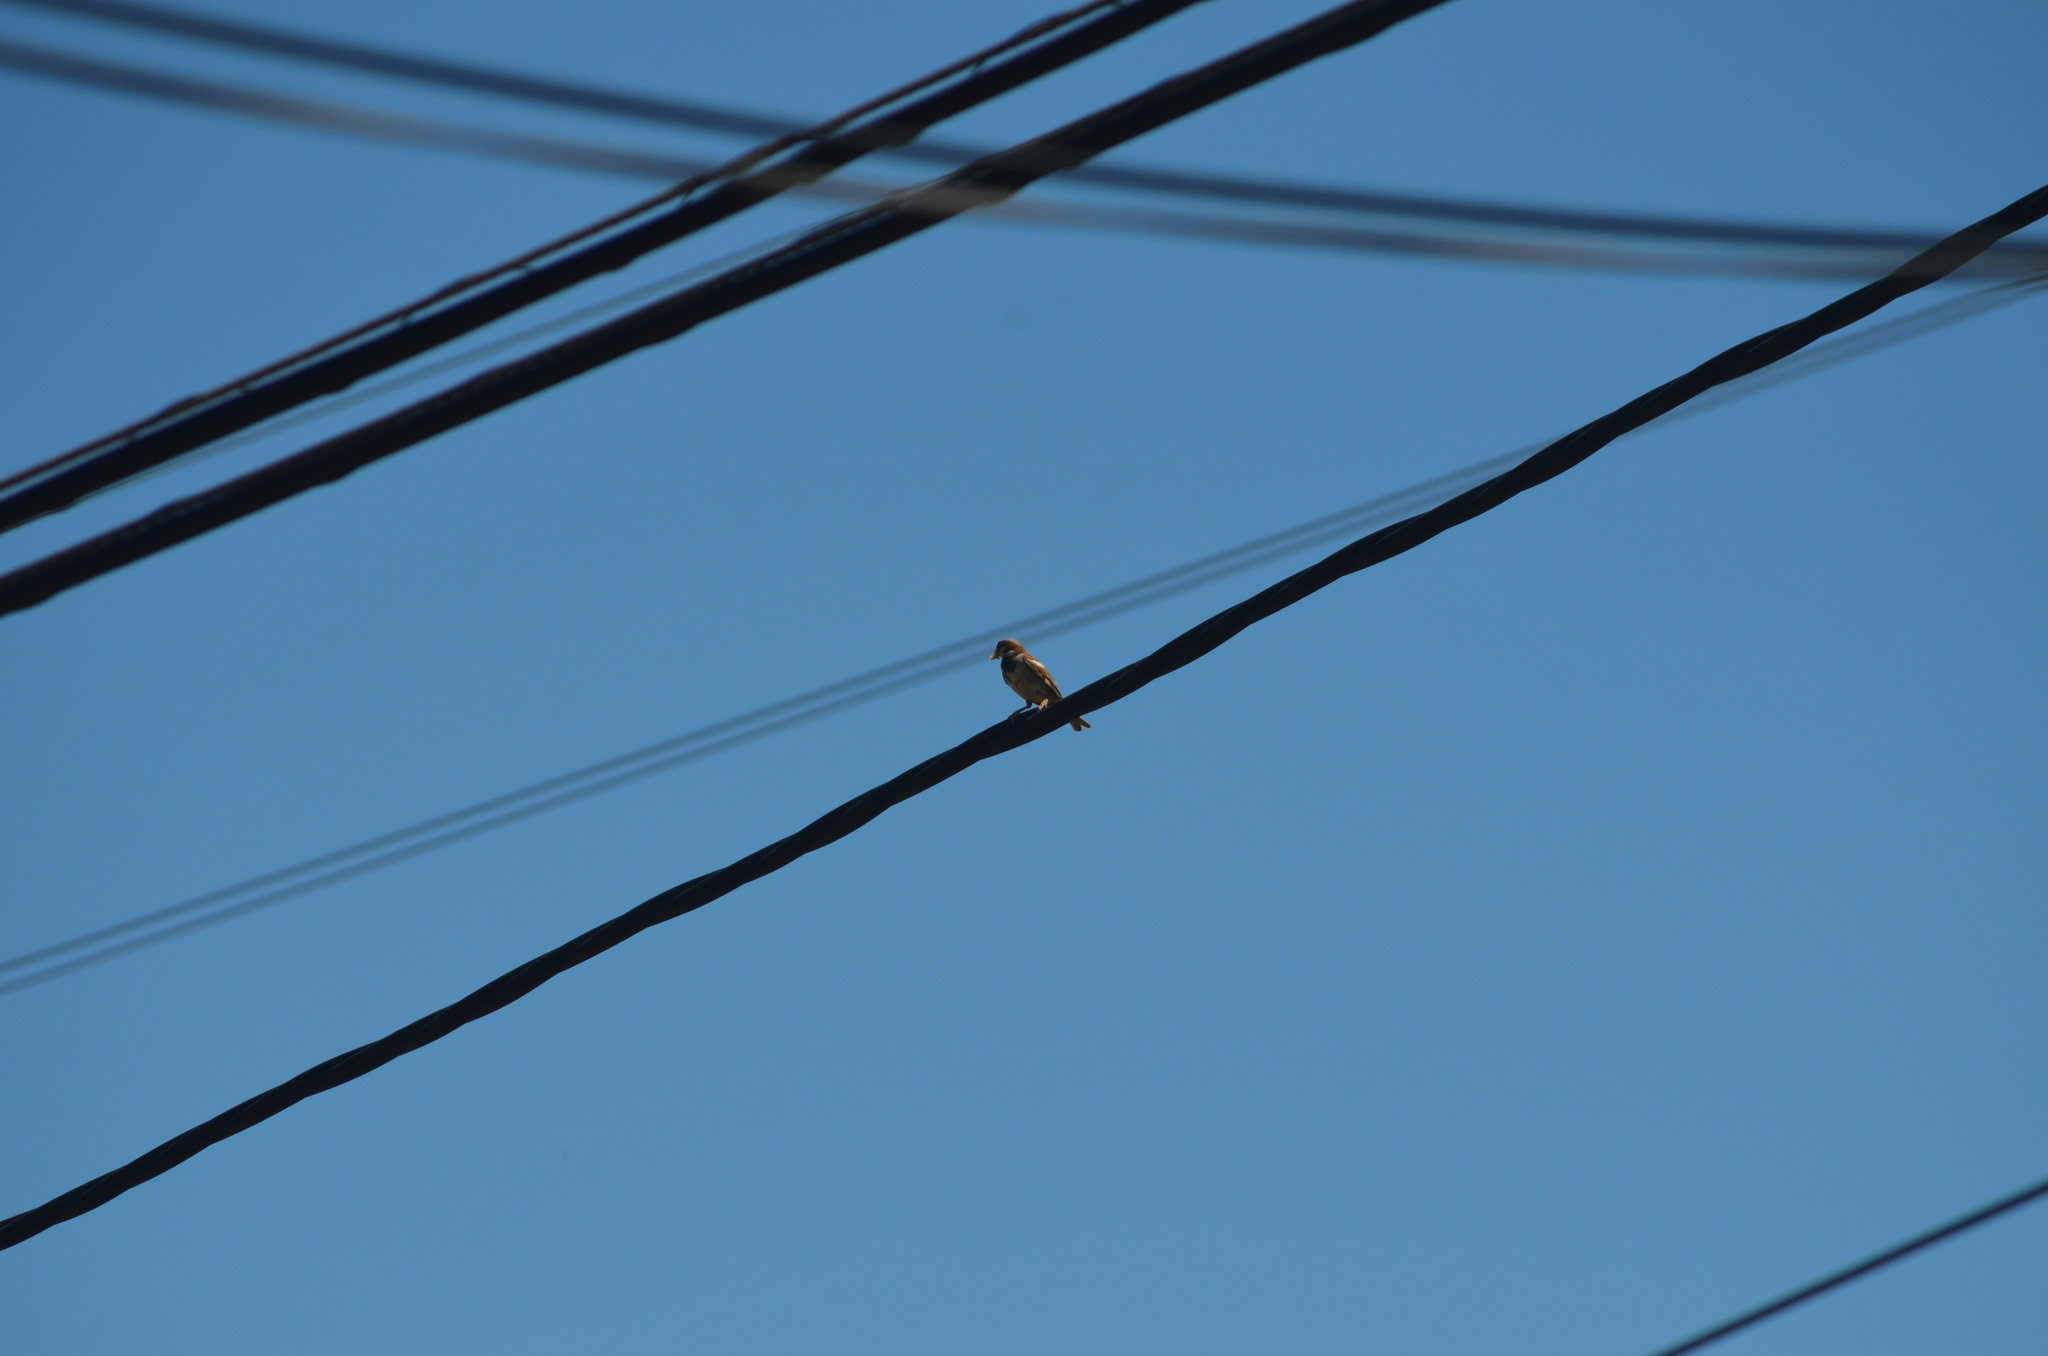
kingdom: Animalia
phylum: Chordata
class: Aves
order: Passeriformes
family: Passeridae
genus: Passer
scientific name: Passer domesticus
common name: House sparrow
